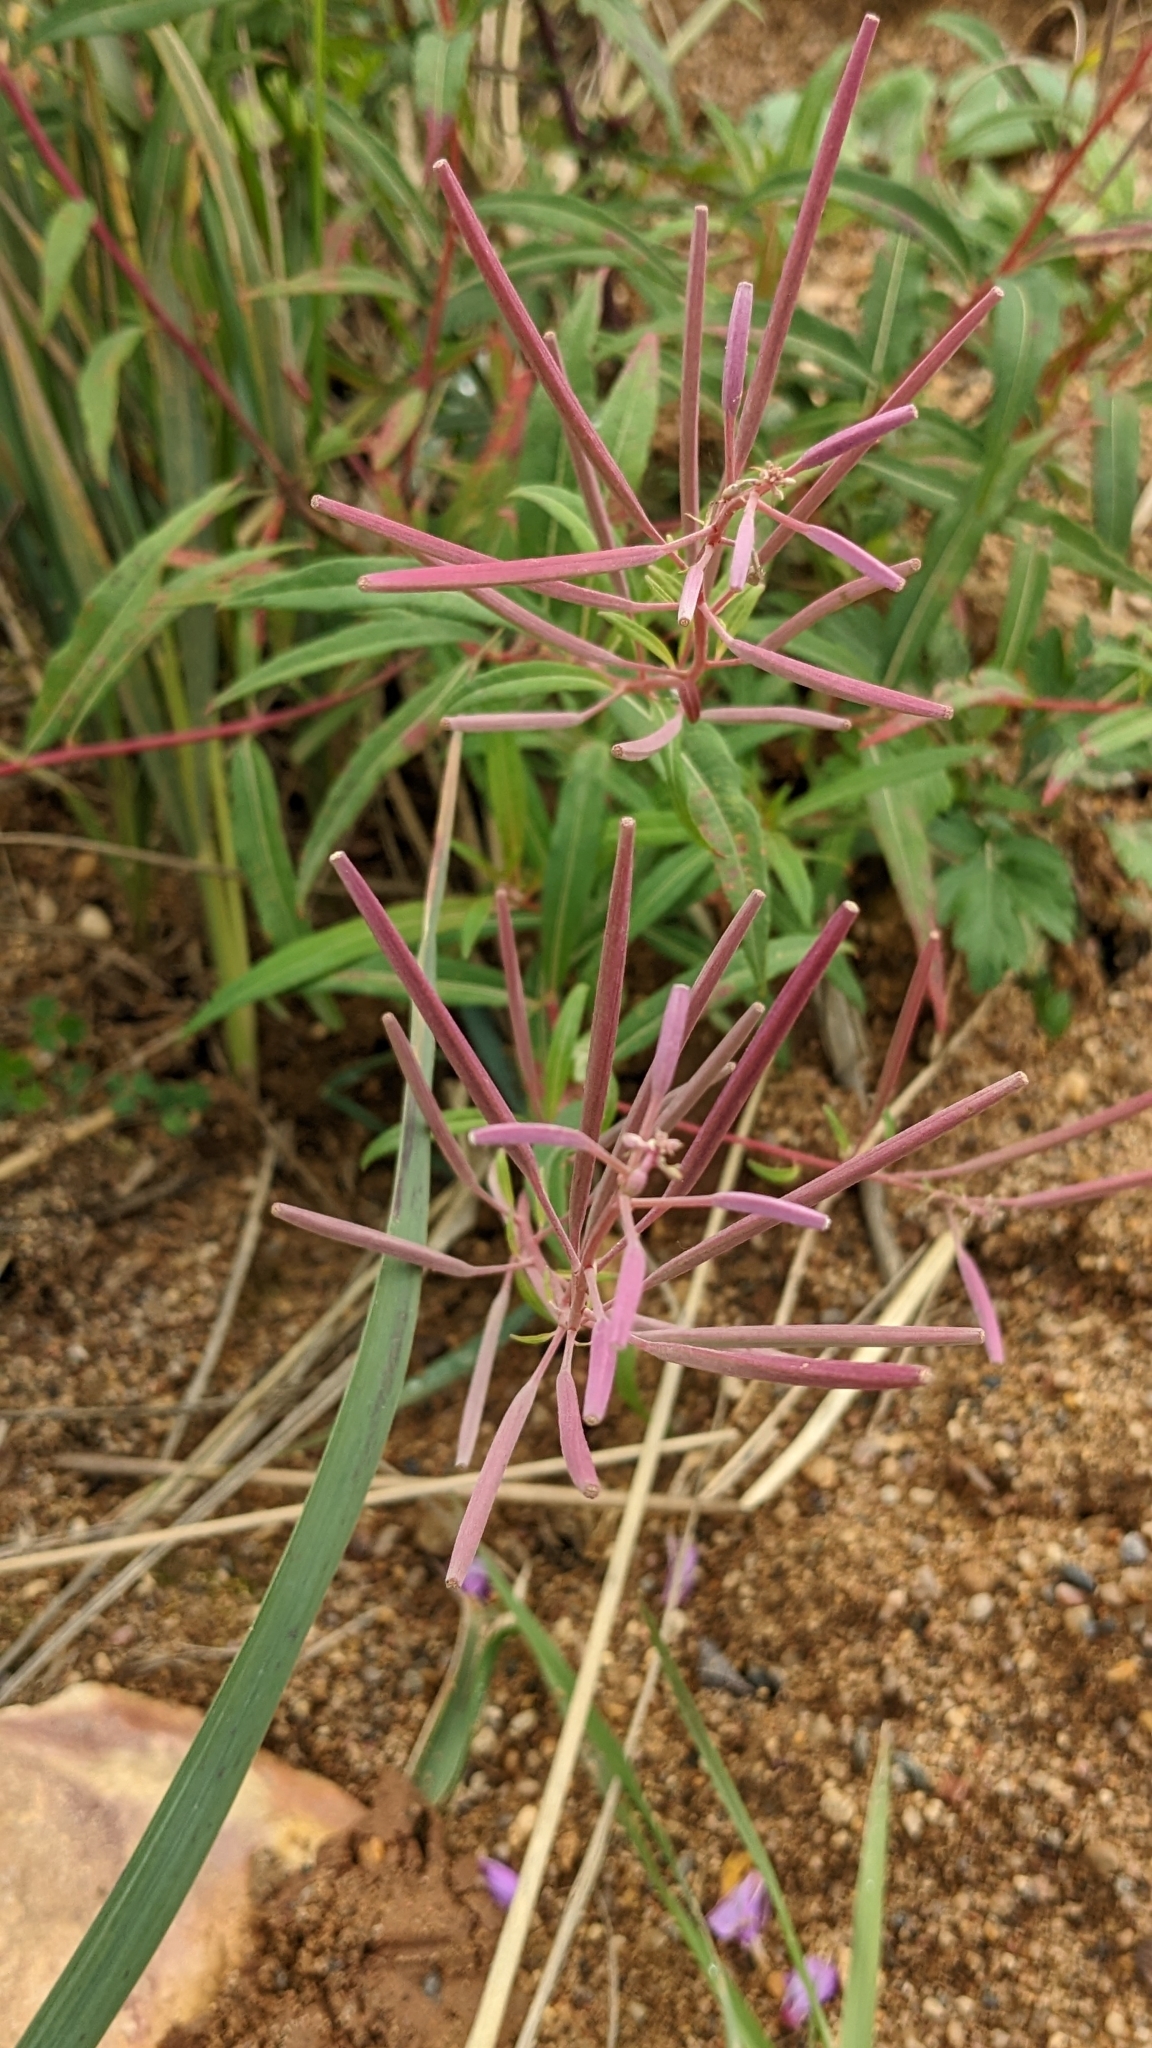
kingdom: Plantae
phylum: Tracheophyta
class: Magnoliopsida
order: Myrtales
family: Onagraceae
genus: Chamaenerion
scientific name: Chamaenerion angustifolium
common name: Fireweed
